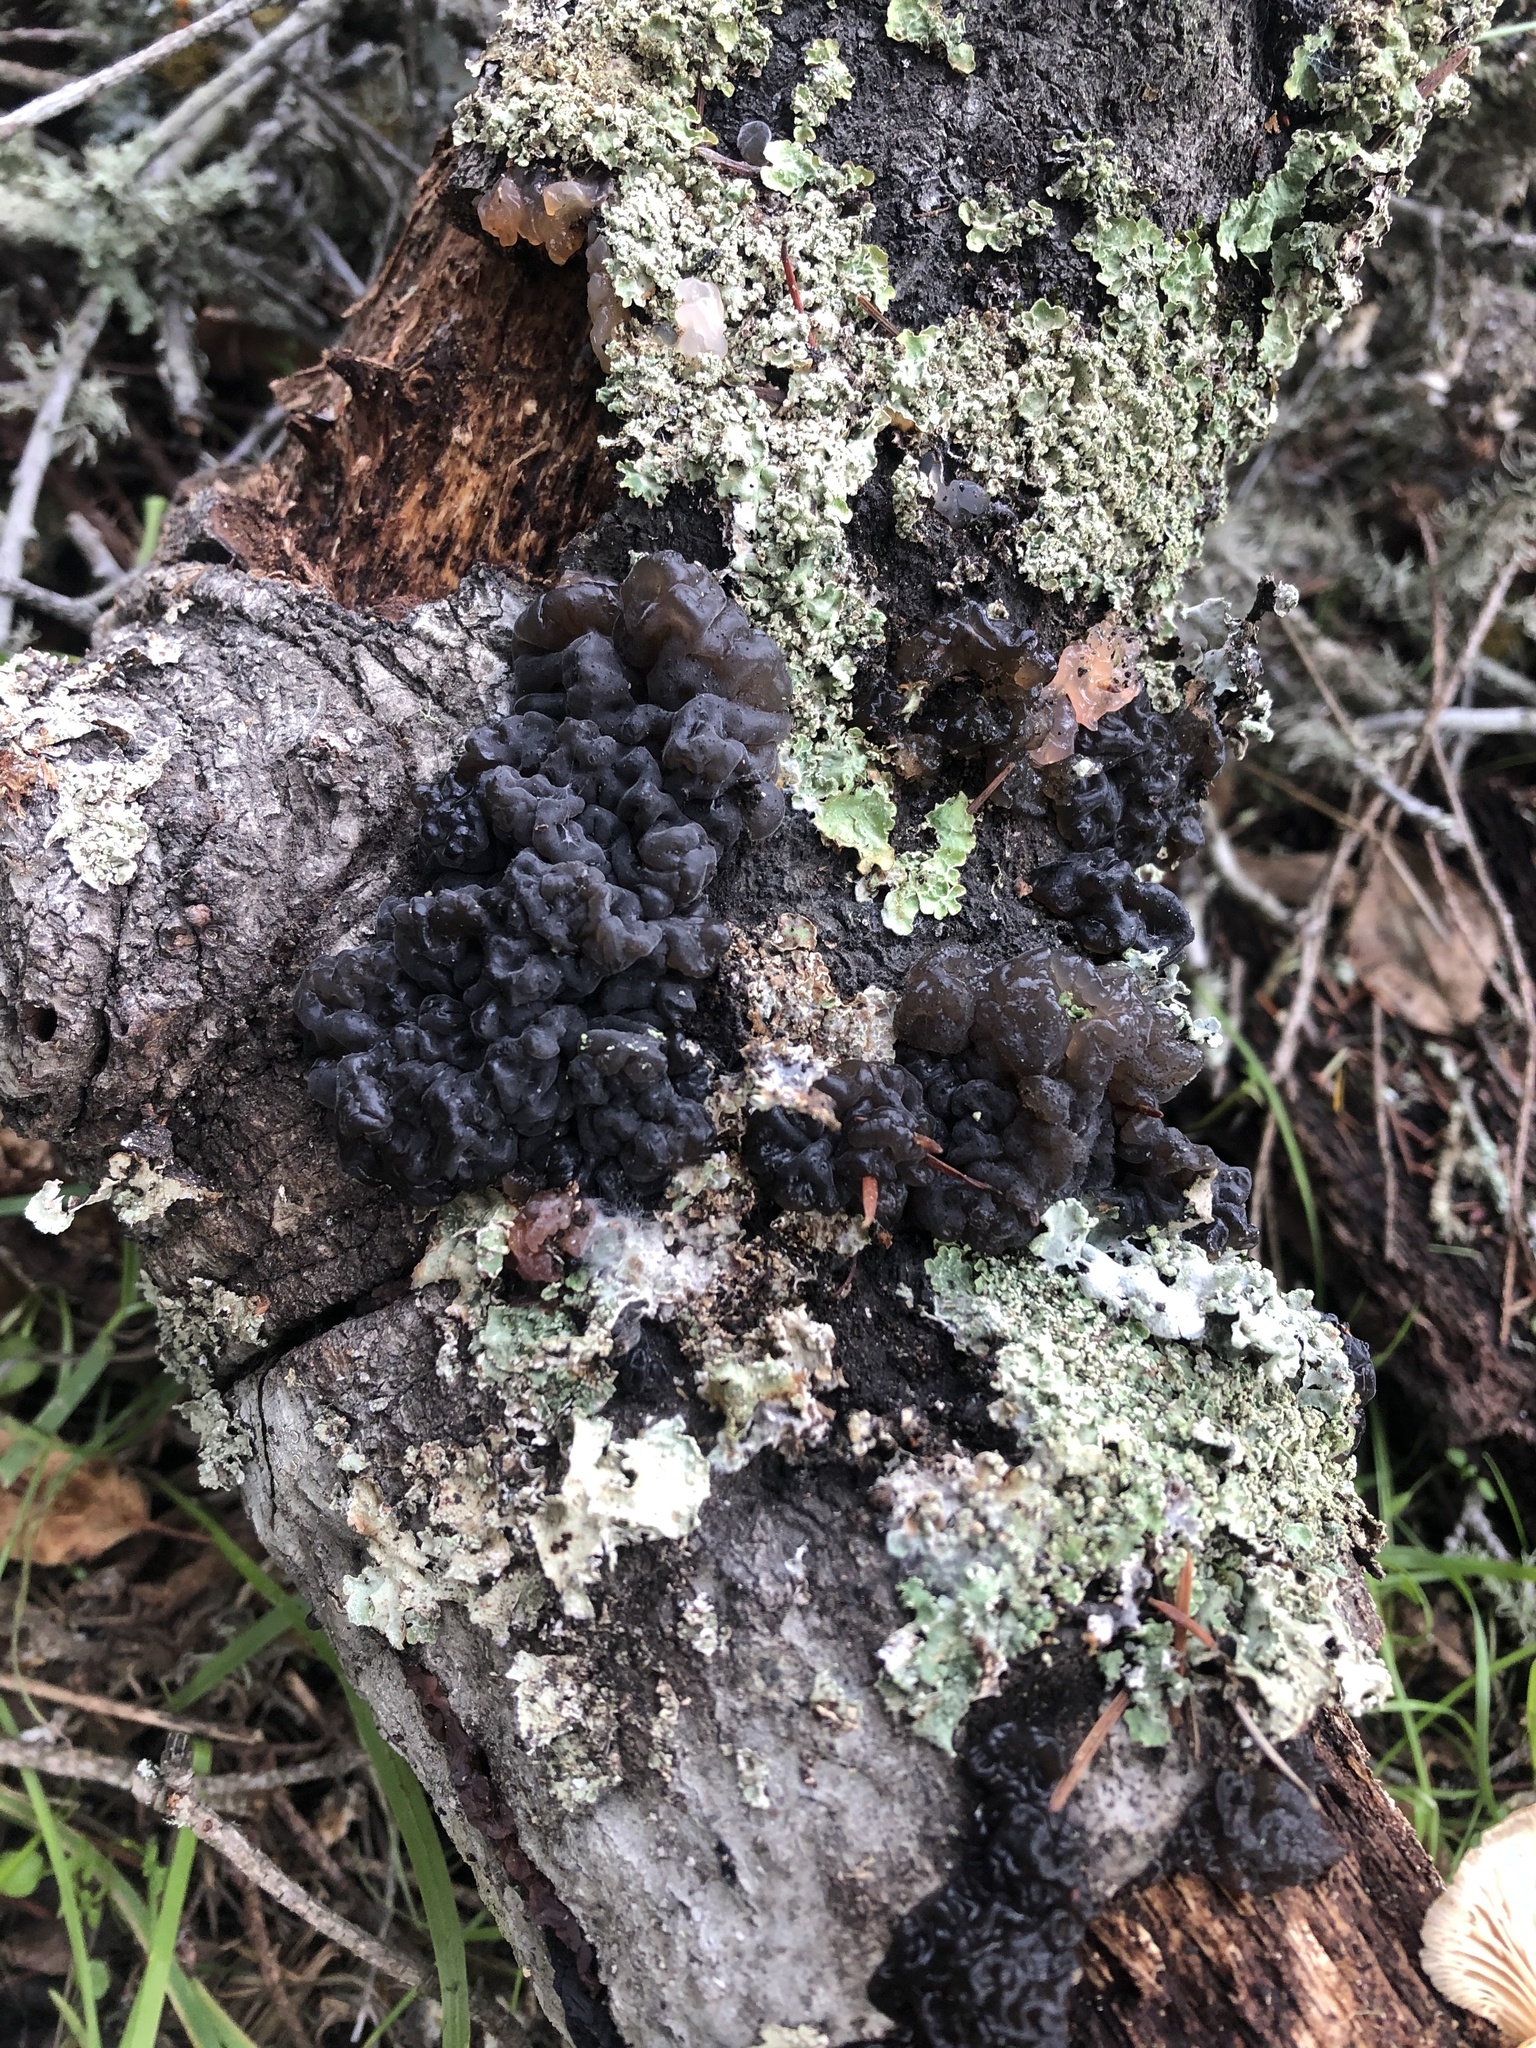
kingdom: Fungi
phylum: Basidiomycota
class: Agaricomycetes
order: Auriculariales
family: Auriculariaceae
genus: Exidia
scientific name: Exidia glandulosa
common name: Witches' butter
